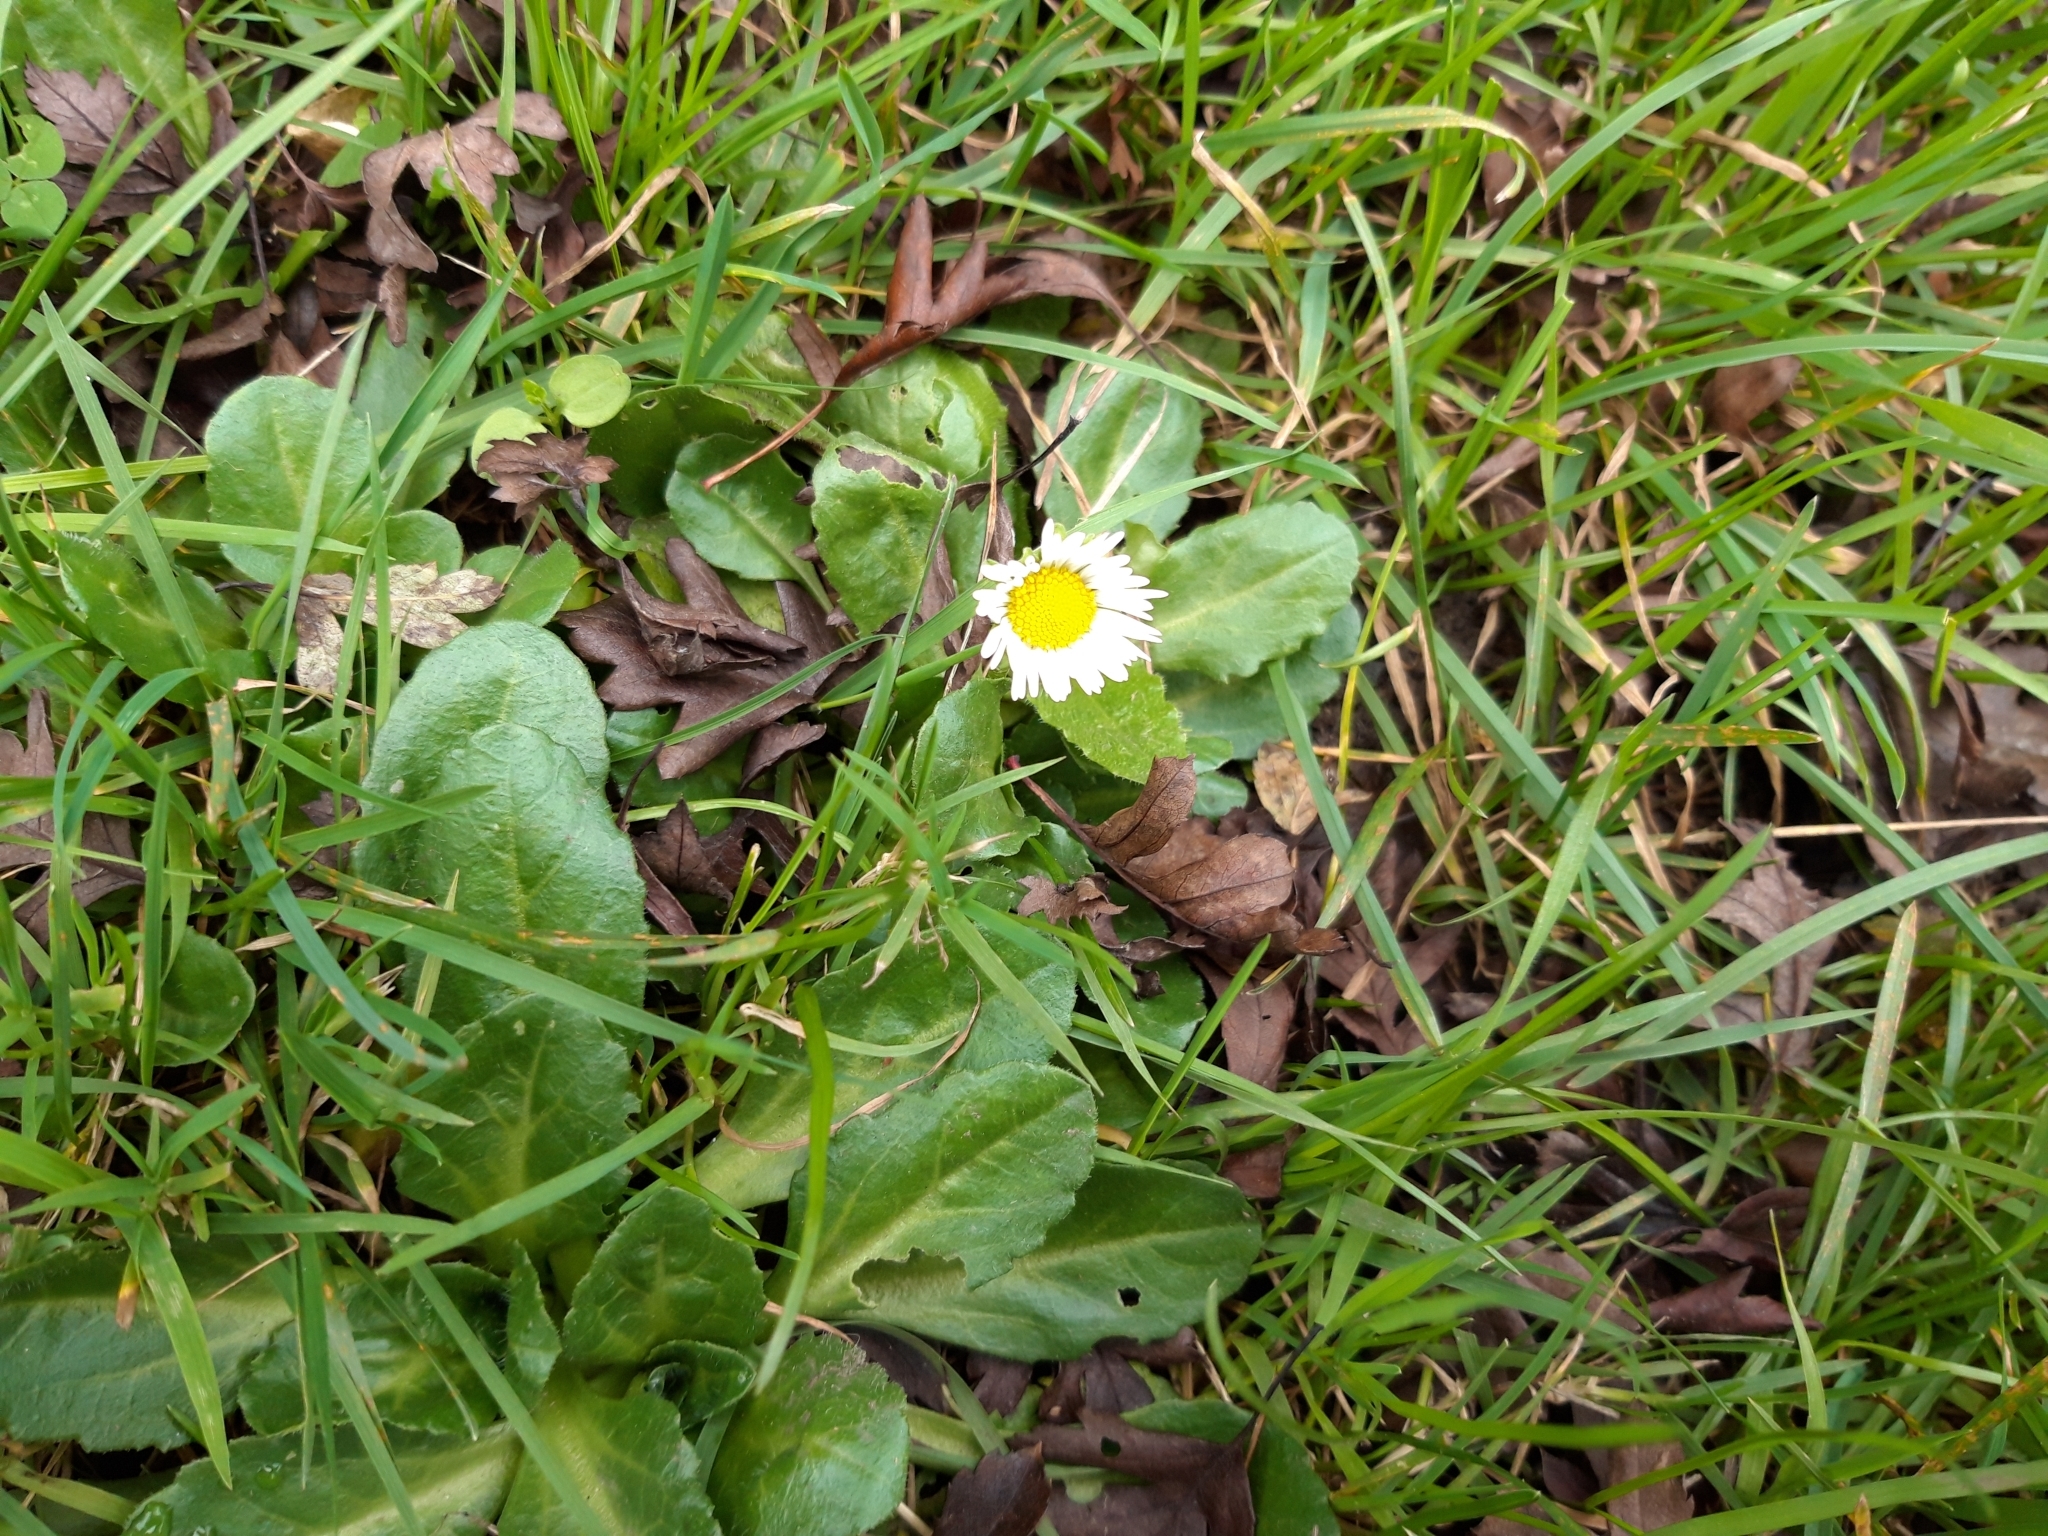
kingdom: Plantae
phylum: Tracheophyta
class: Magnoliopsida
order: Asterales
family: Asteraceae
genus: Bellis
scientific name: Bellis perennis
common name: Lawndaisy
